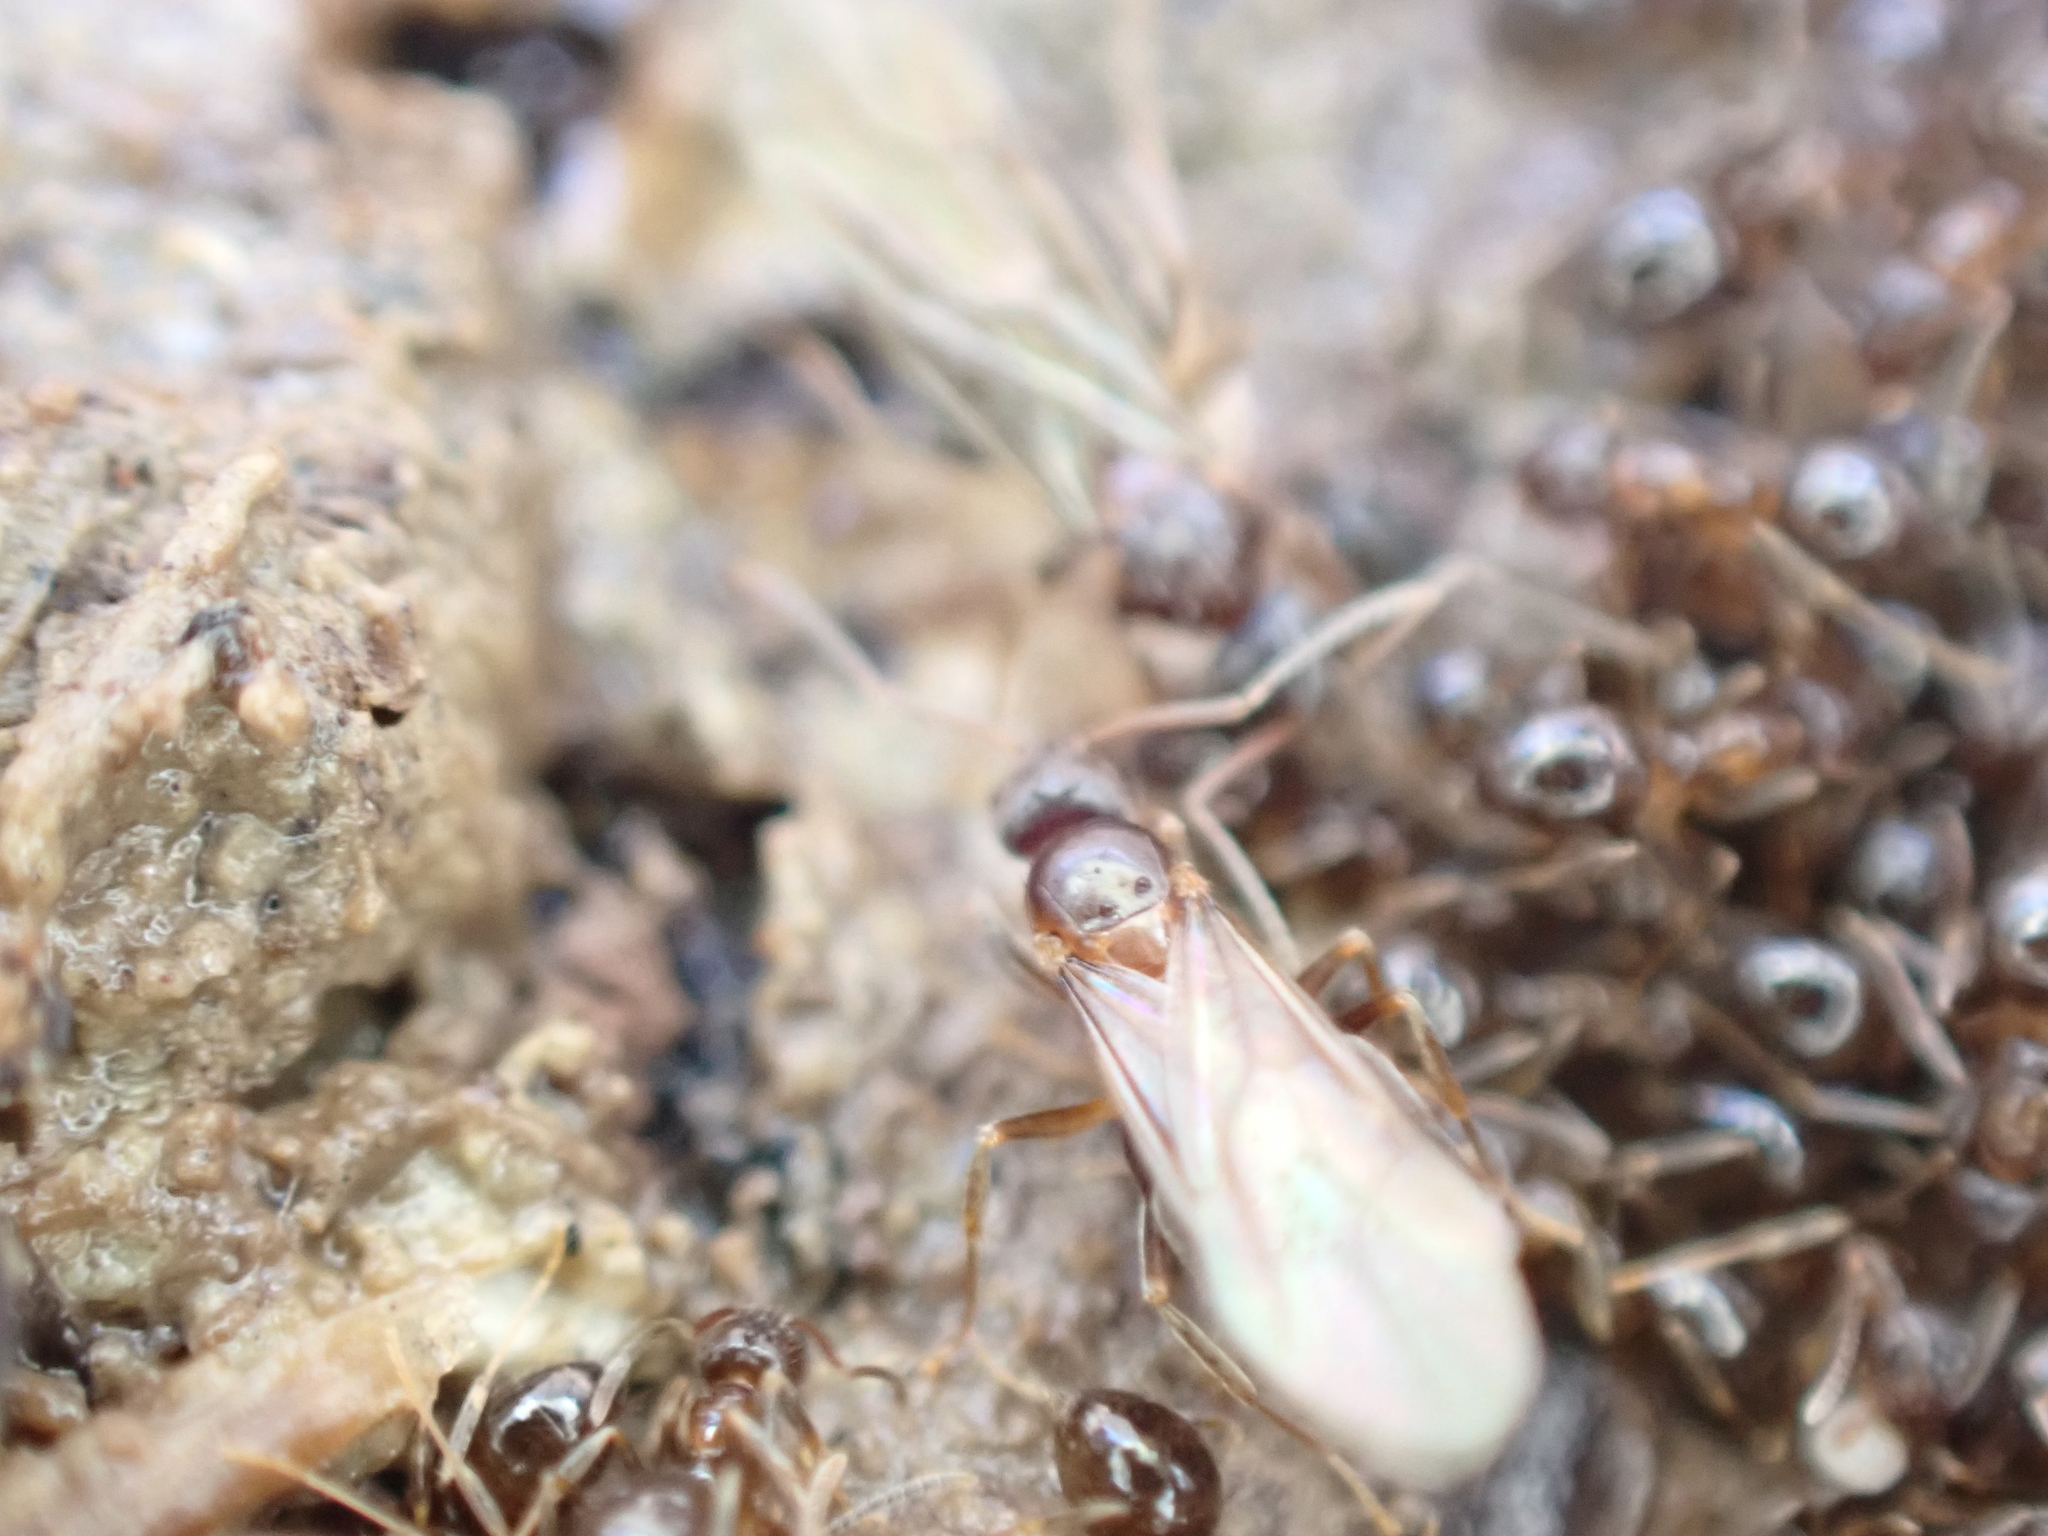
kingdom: Animalia
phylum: Arthropoda
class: Insecta
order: Hymenoptera
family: Formicidae
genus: Nylanderia
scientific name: Nylanderia faisonensis
